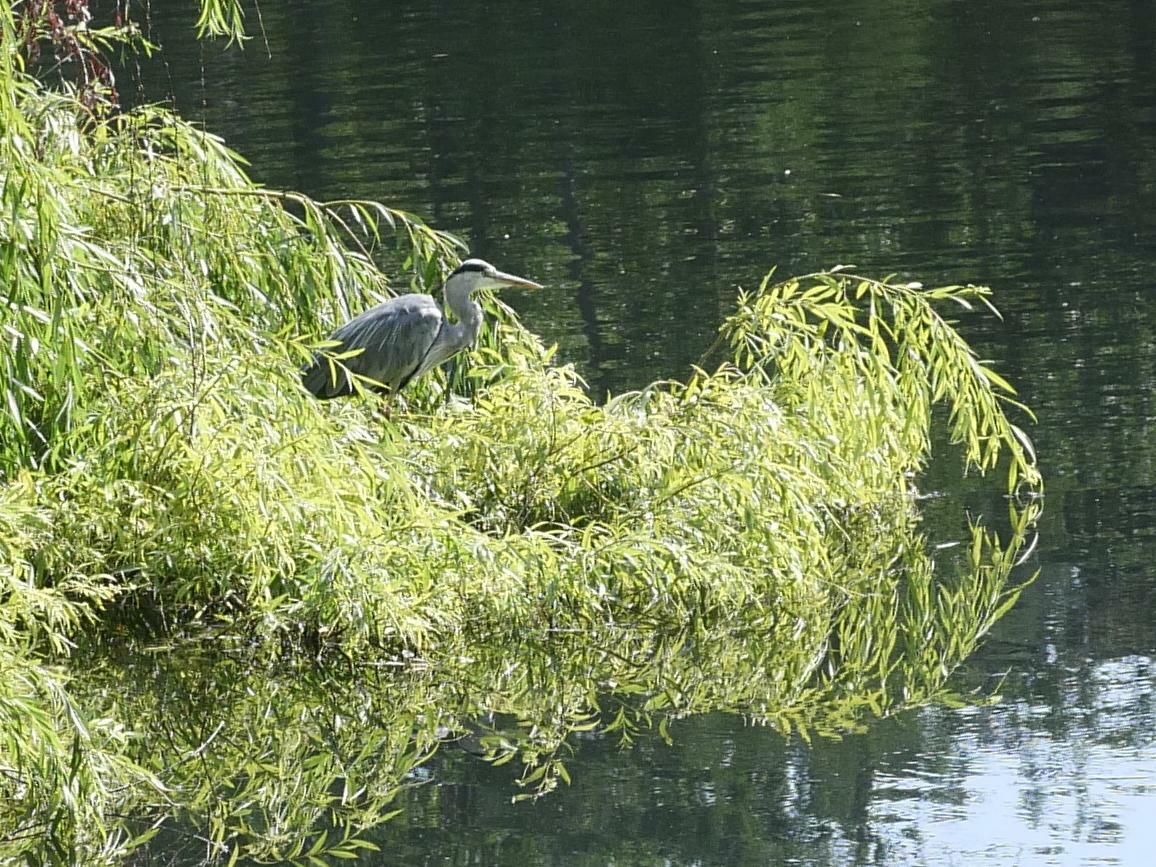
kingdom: Animalia
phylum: Chordata
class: Aves
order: Pelecaniformes
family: Ardeidae
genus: Ardea
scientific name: Ardea cinerea
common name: Grey heron
